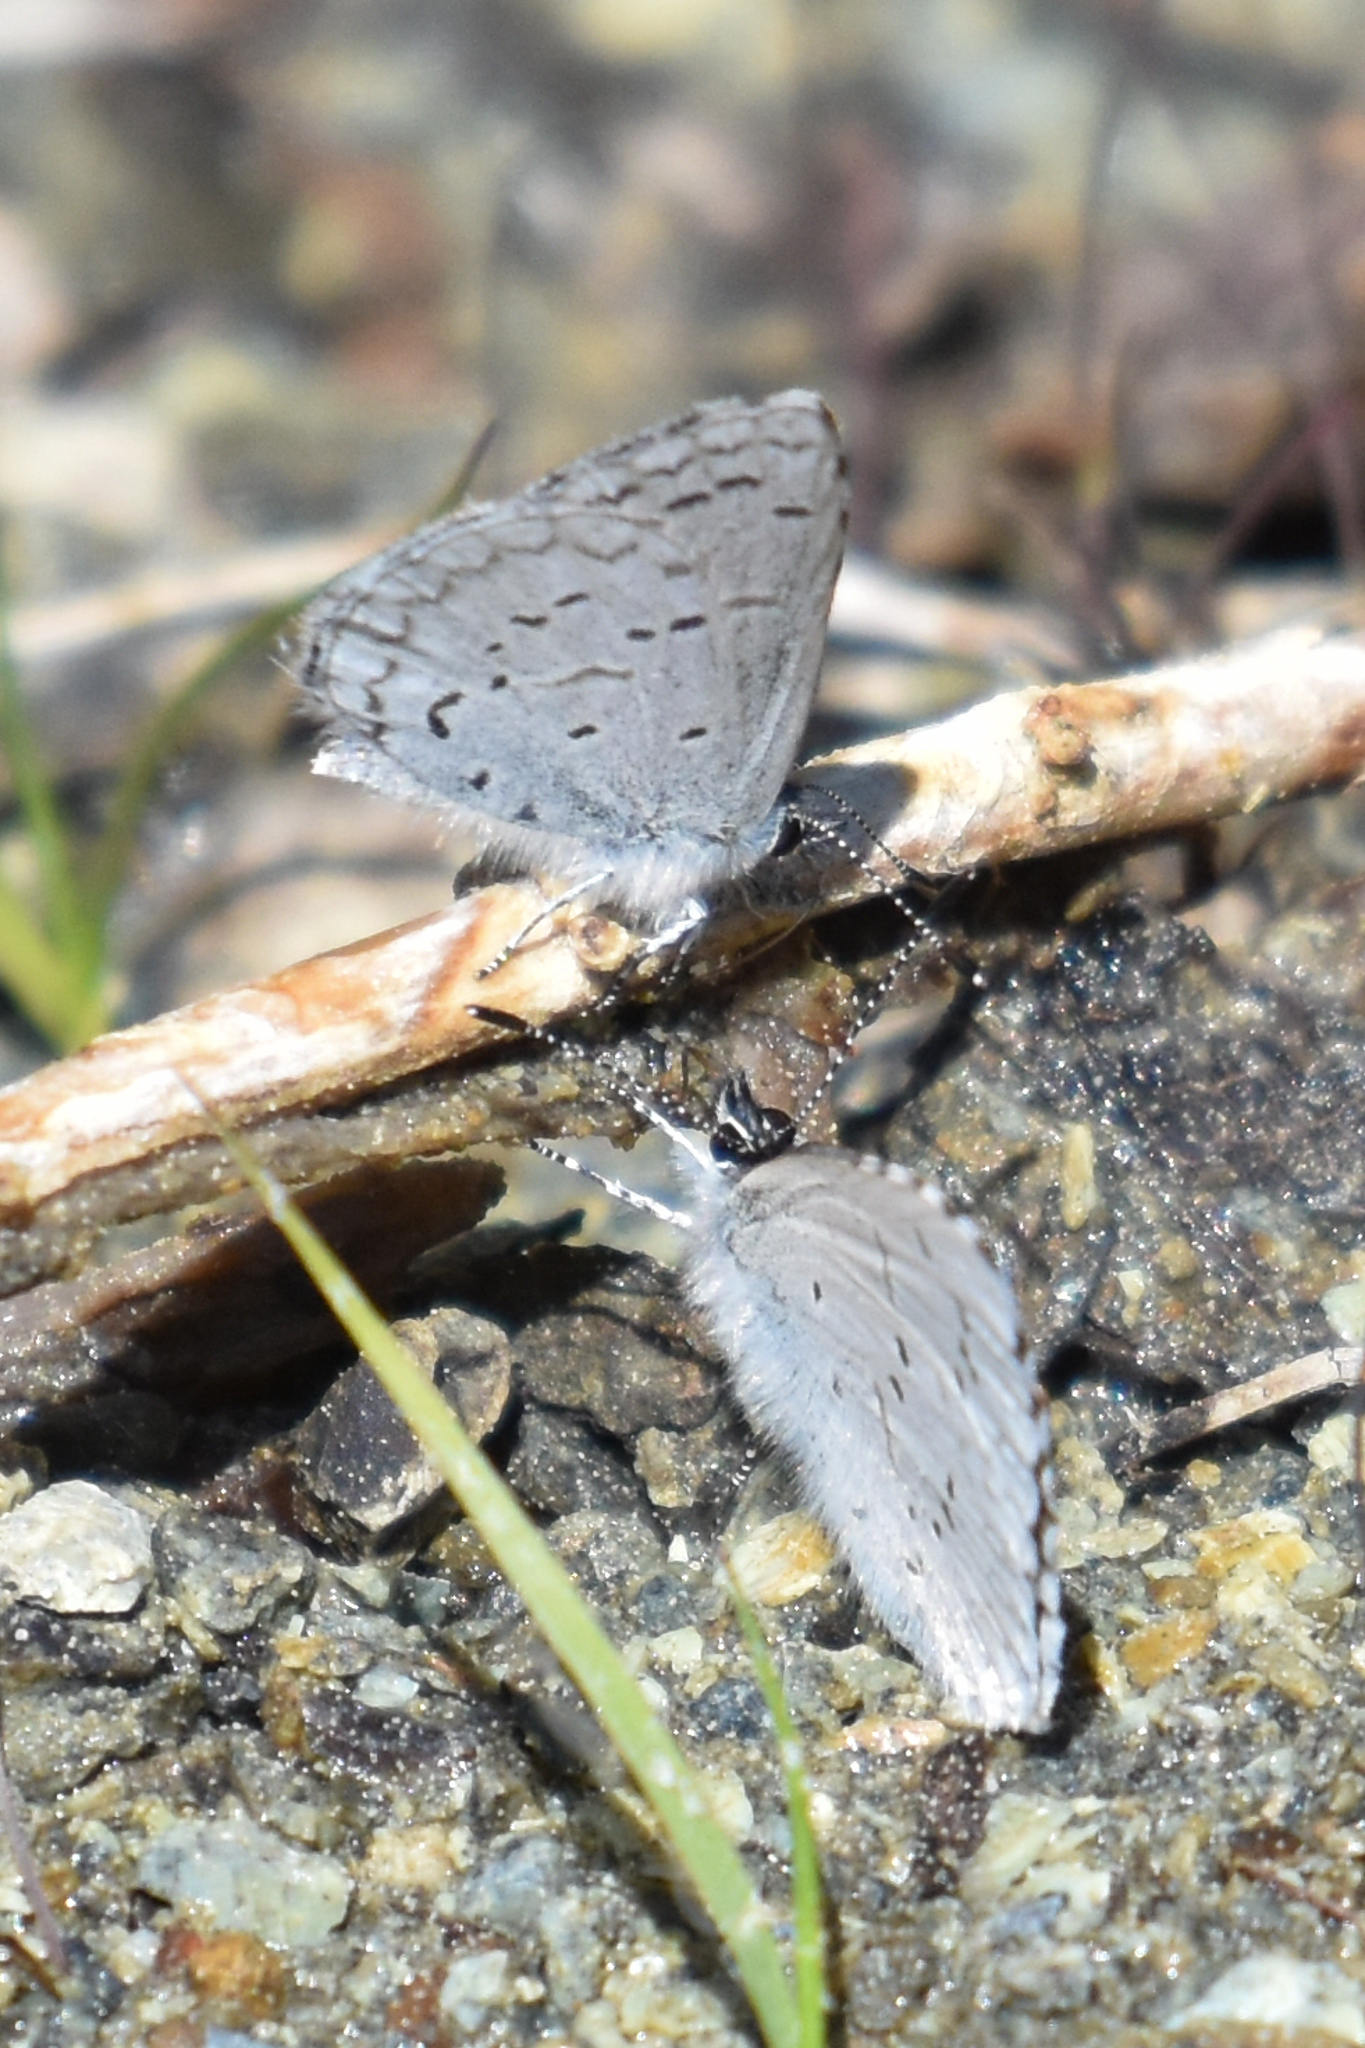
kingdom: Animalia
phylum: Arthropoda
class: Insecta
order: Lepidoptera
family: Lycaenidae
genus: Celastrina
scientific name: Celastrina ladon
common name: Spring azure
